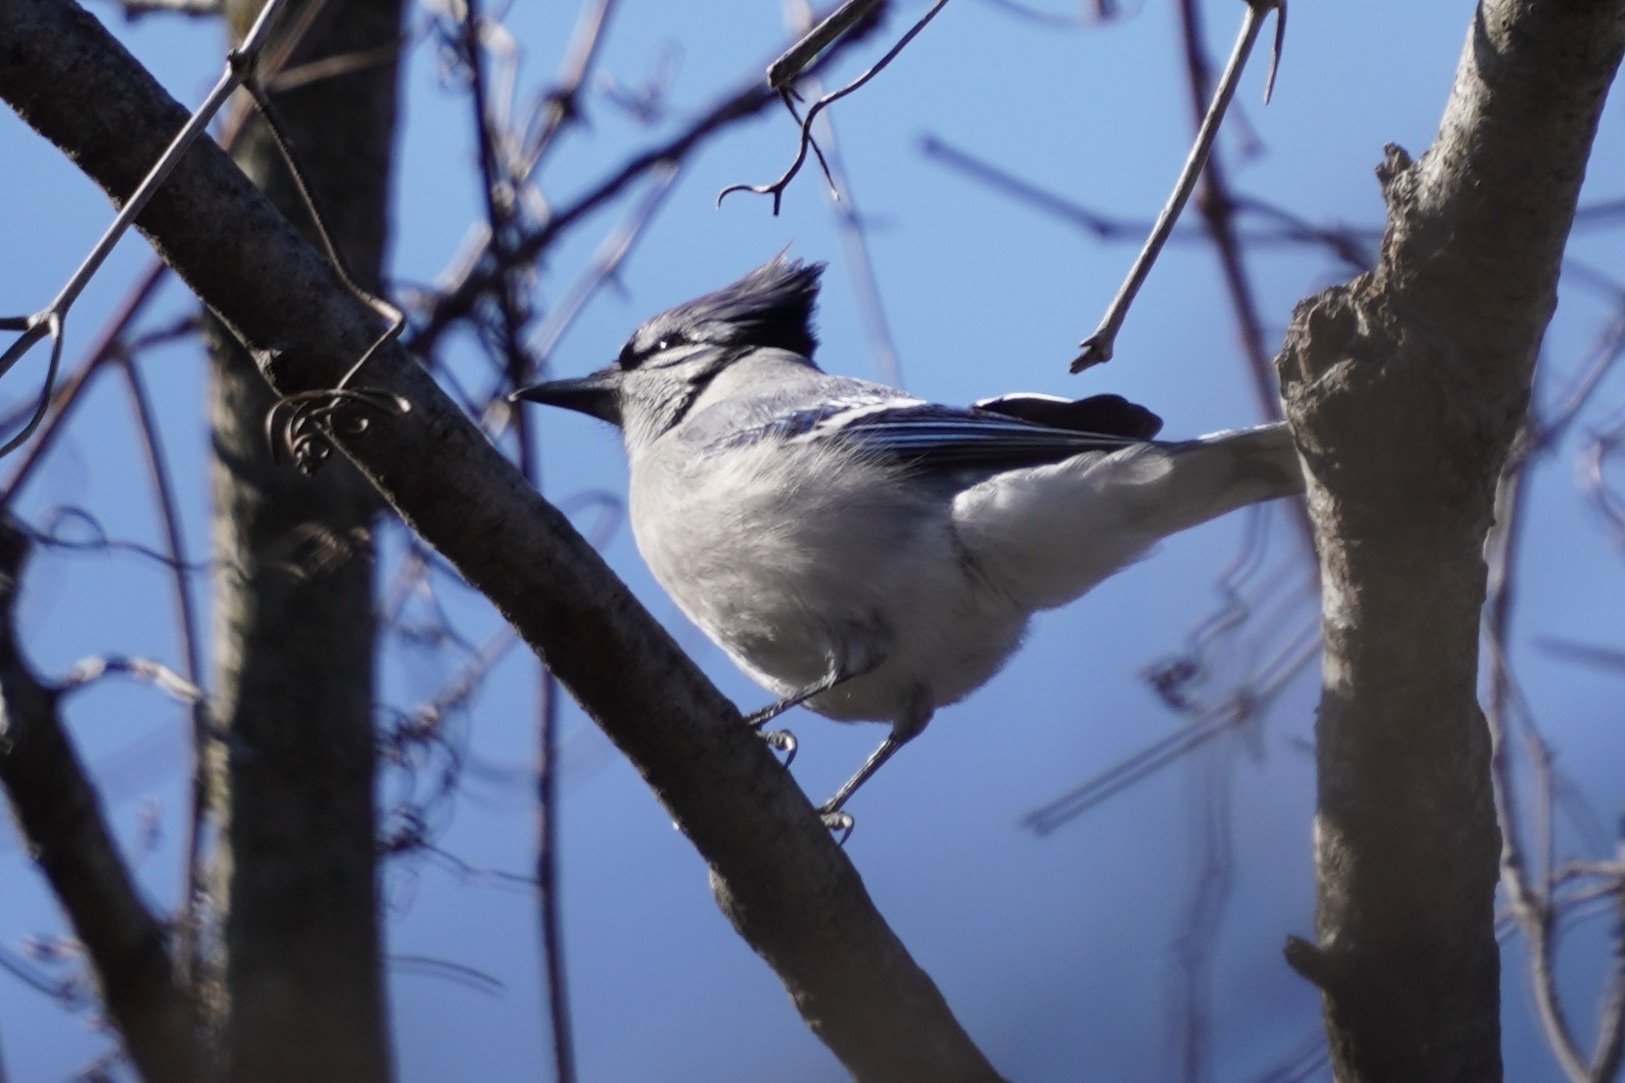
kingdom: Animalia
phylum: Chordata
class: Aves
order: Passeriformes
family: Corvidae
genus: Cyanocitta
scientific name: Cyanocitta cristata
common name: Blue jay
